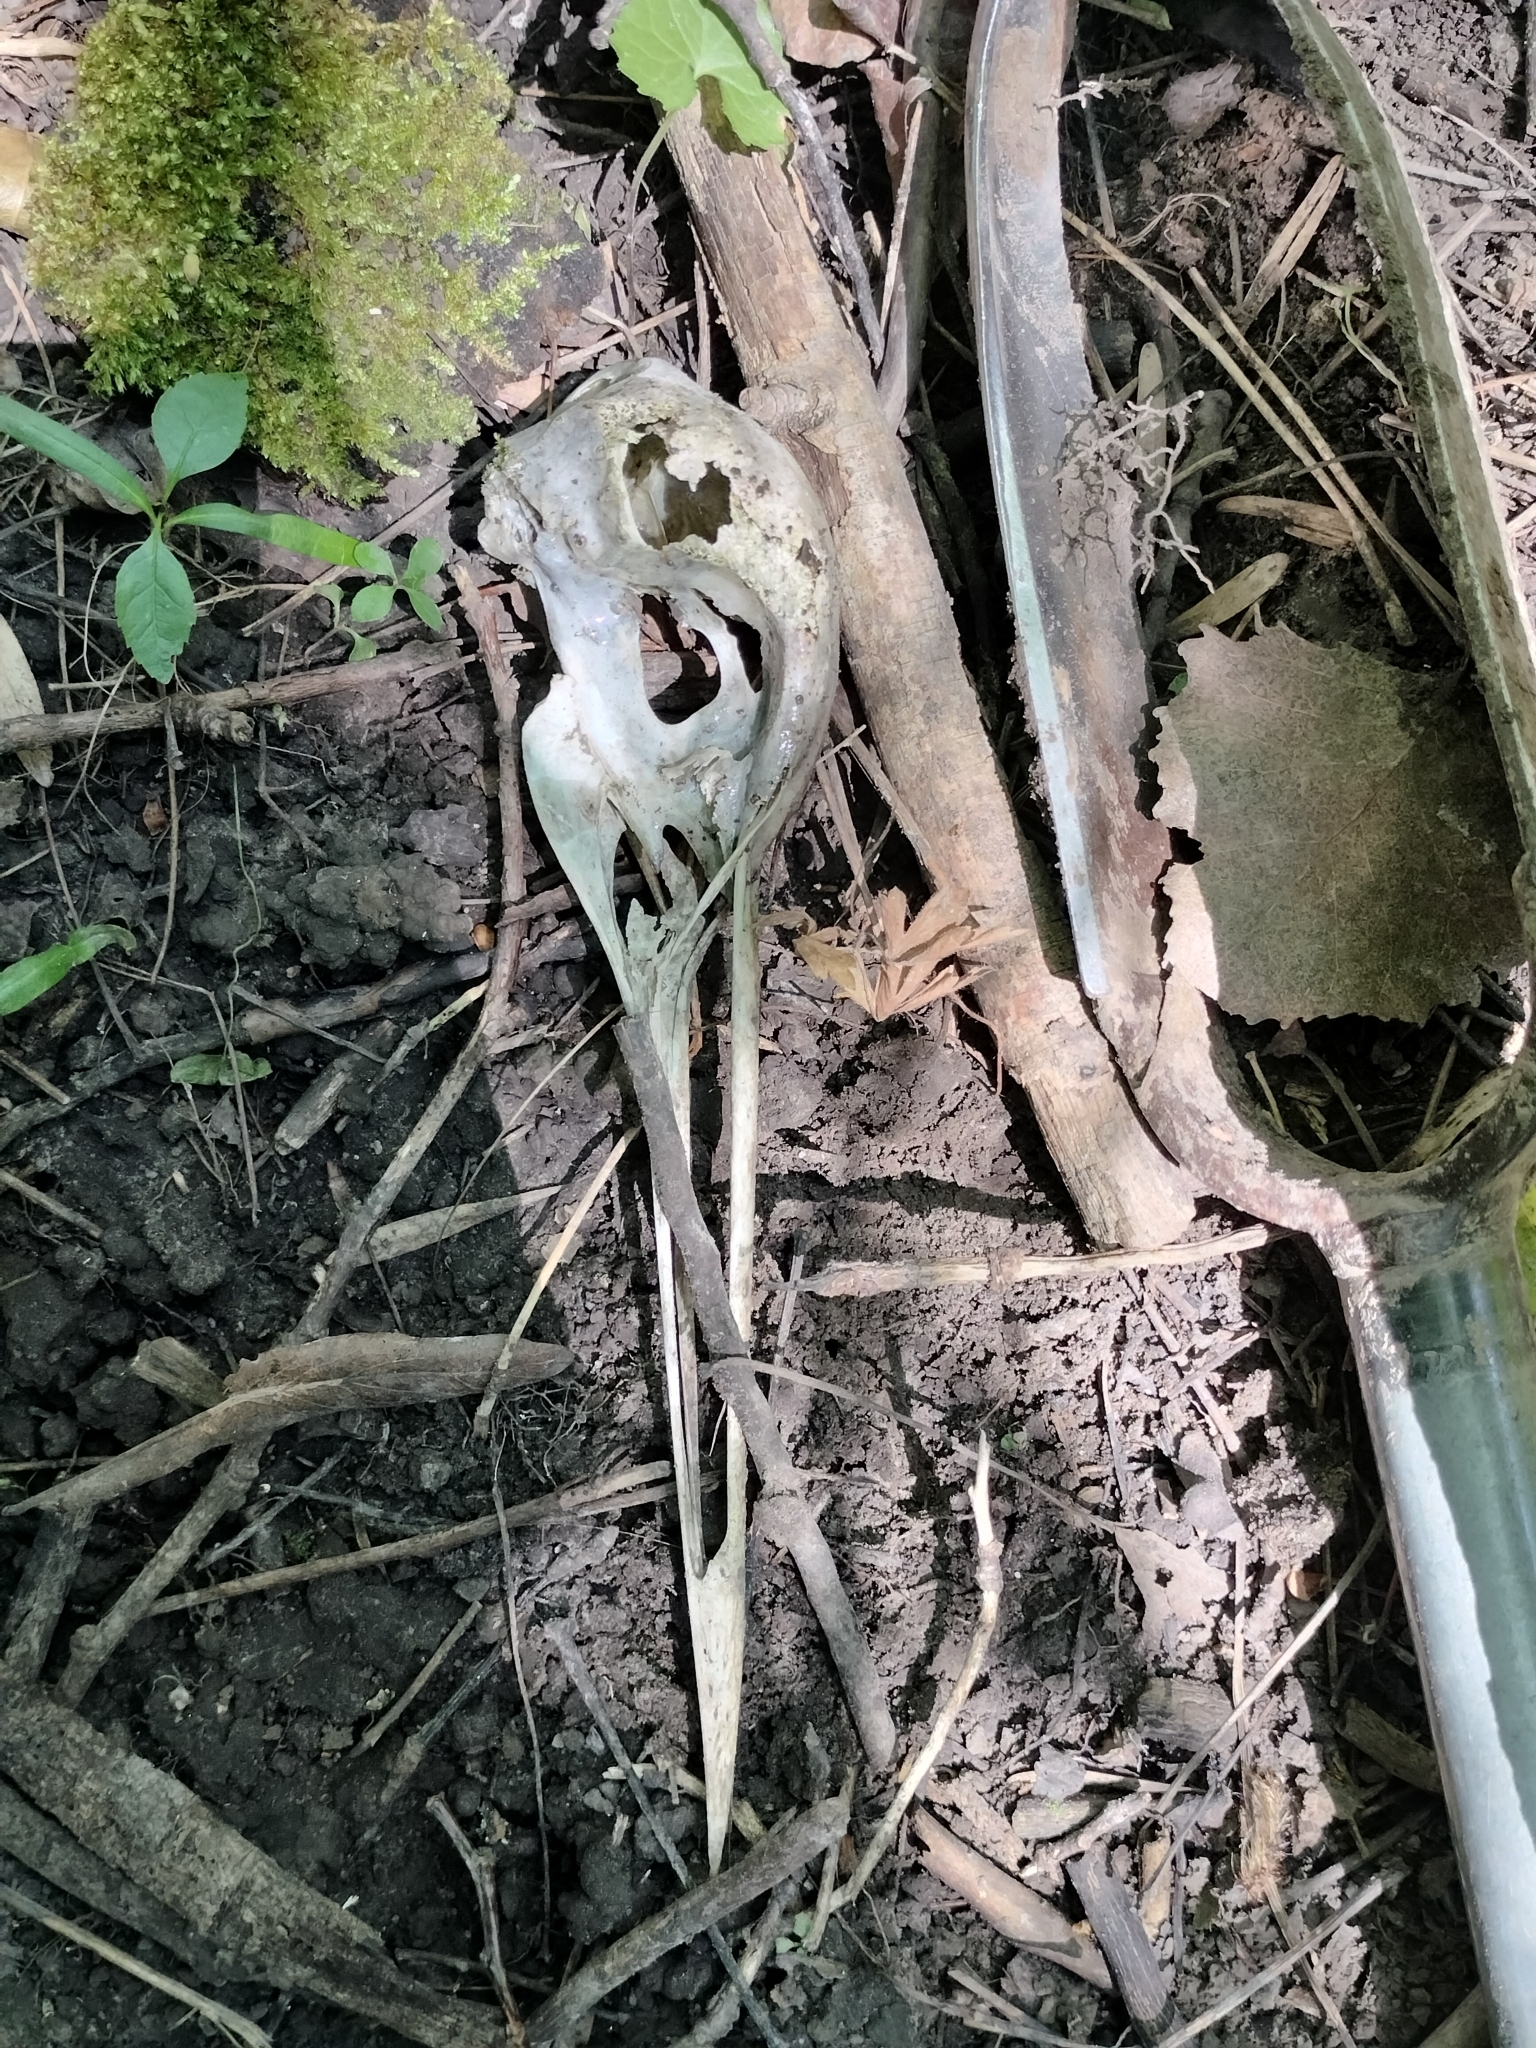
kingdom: Animalia
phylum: Chordata
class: Aves
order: Gruiformes
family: Gruidae
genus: Grus
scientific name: Grus canadensis
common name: Sandhill crane
